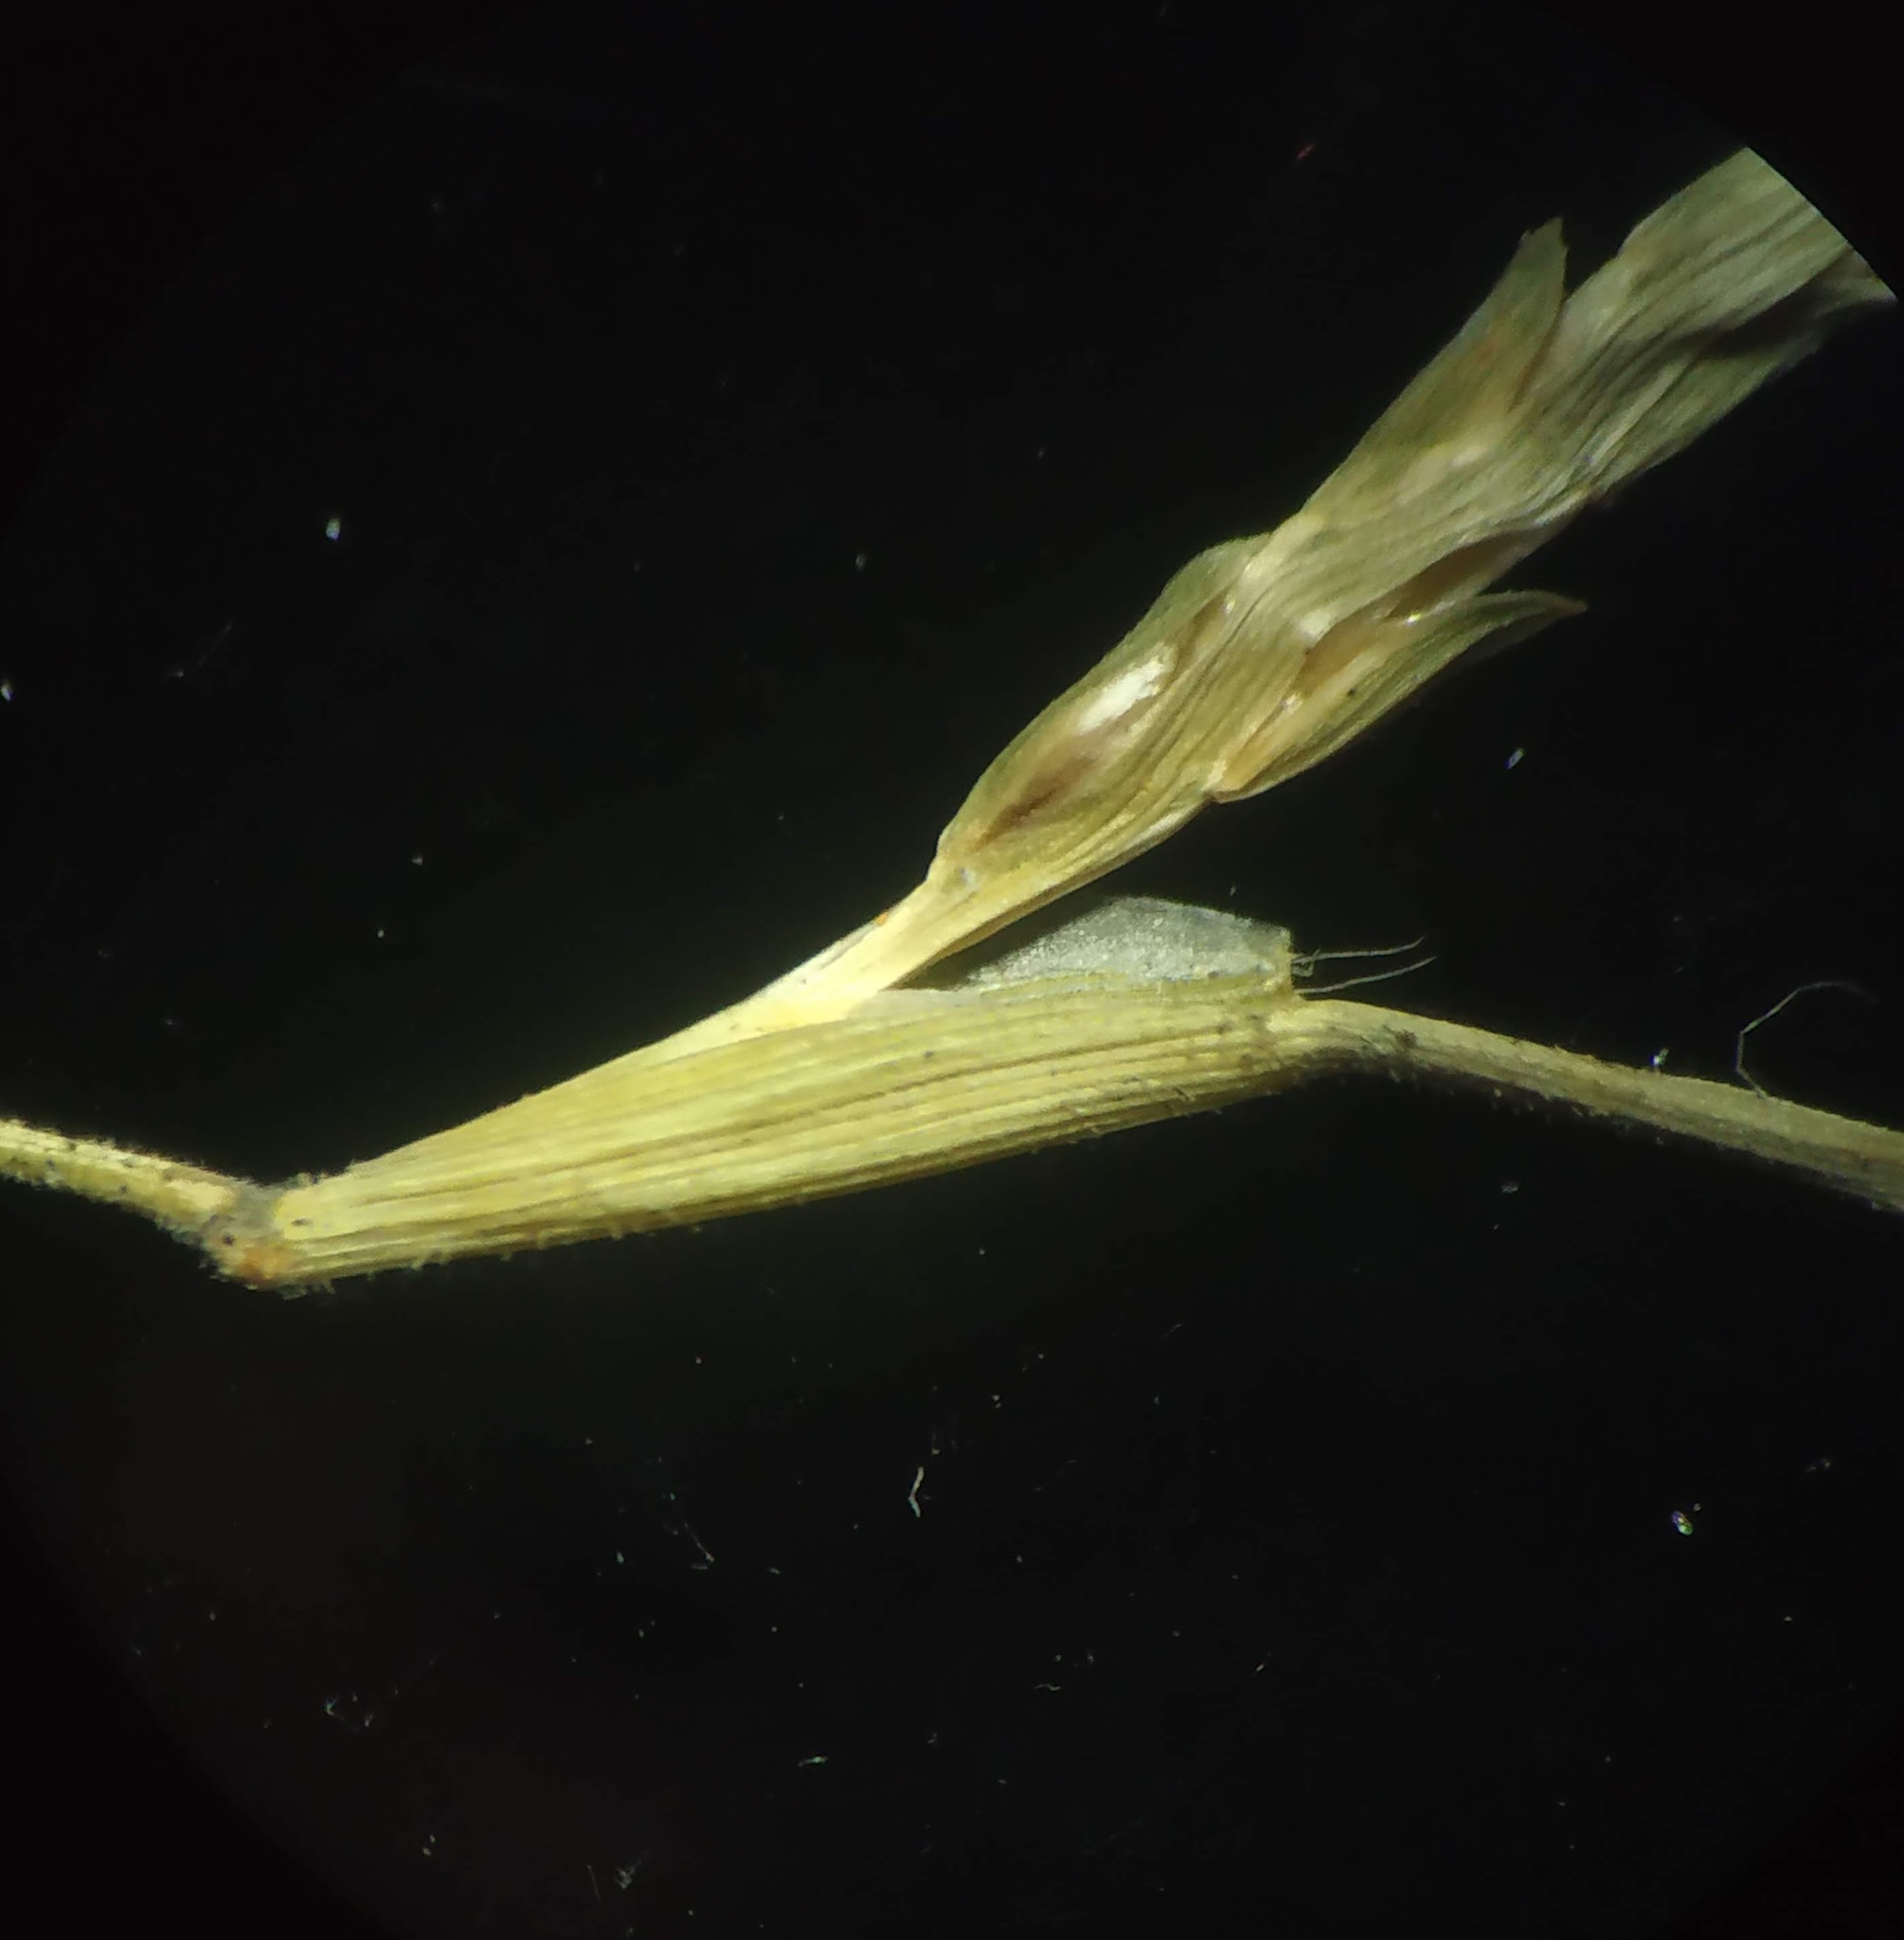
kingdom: Plantae
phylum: Tracheophyta
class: Liliopsida
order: Poales
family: Poaceae
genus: Oropetium
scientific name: Oropetium villosulum
